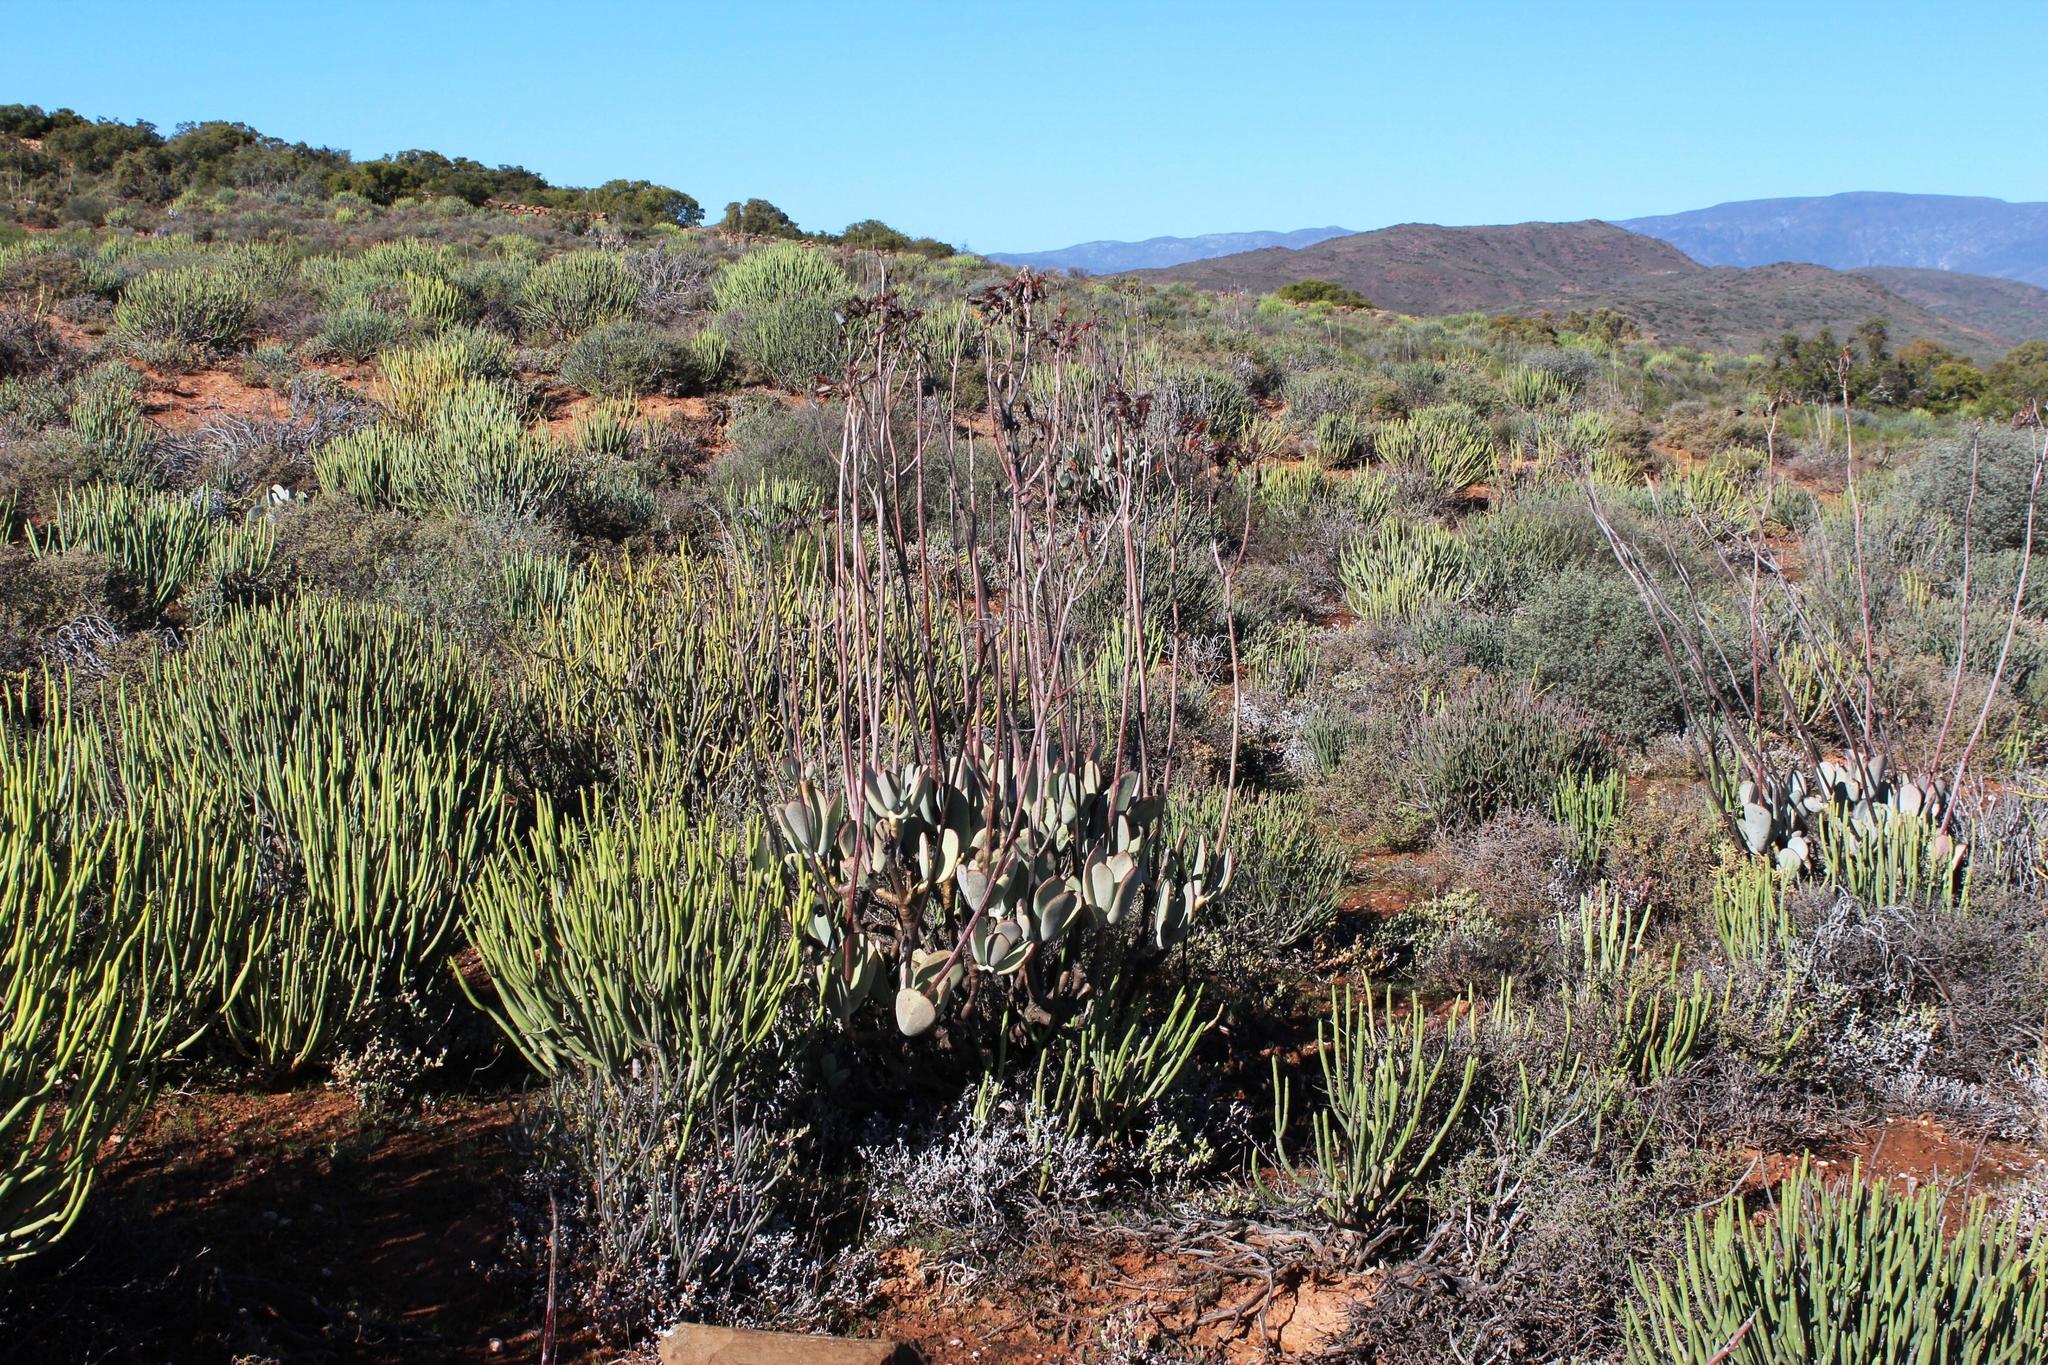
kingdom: Plantae
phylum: Tracheophyta
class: Magnoliopsida
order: Saxifragales
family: Crassulaceae
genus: Cotyledon
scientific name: Cotyledon orbiculata
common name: Pig's ear
